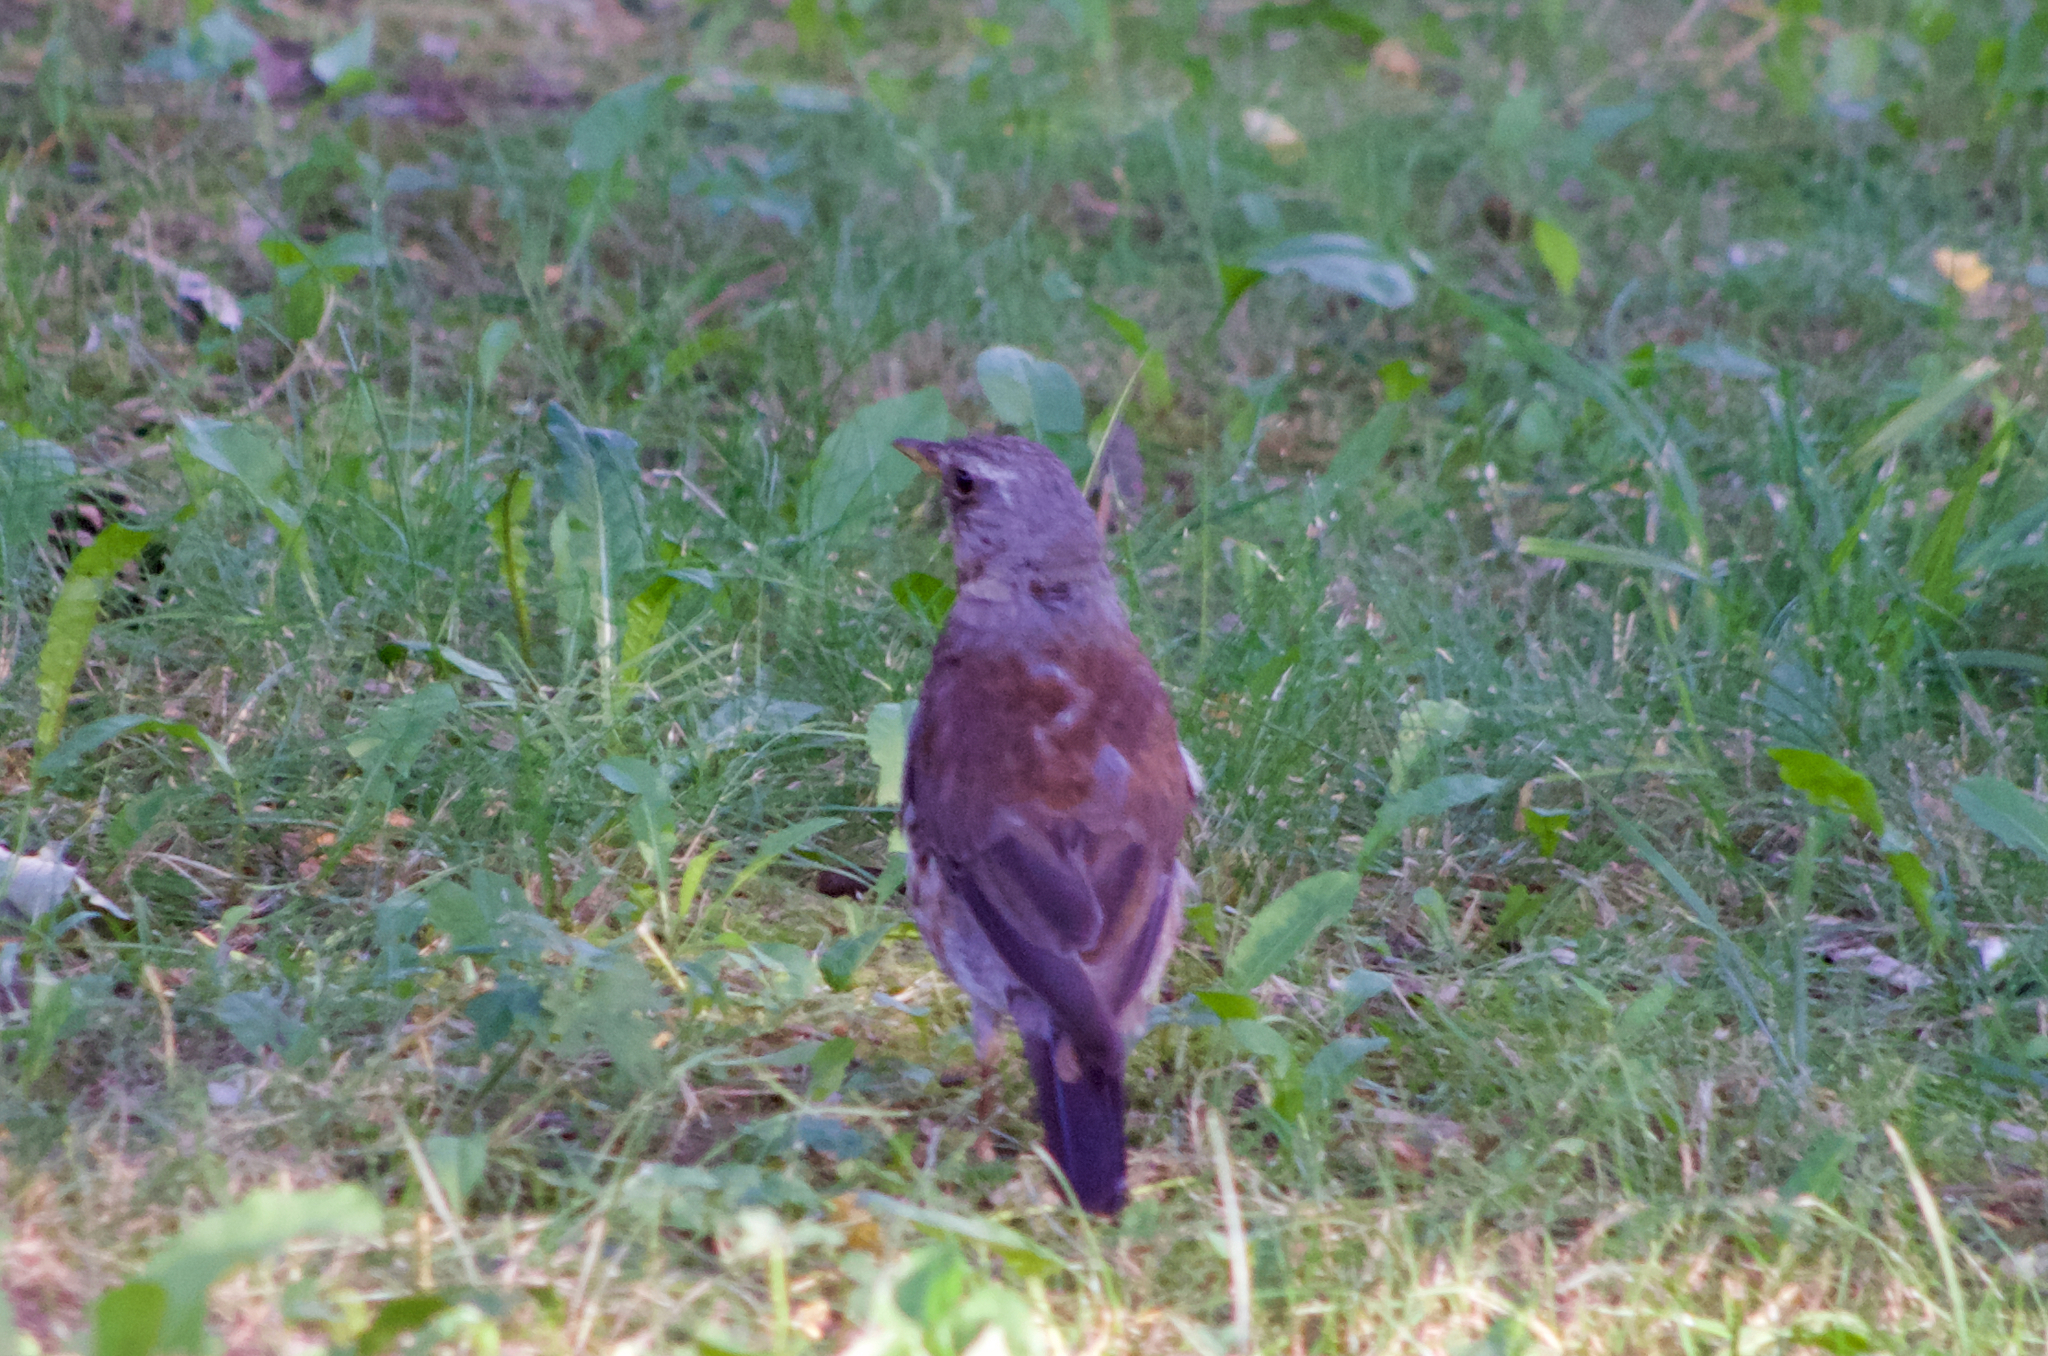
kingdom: Animalia
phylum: Chordata
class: Aves
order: Passeriformes
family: Turdidae
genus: Turdus
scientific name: Turdus pilaris
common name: Fieldfare
